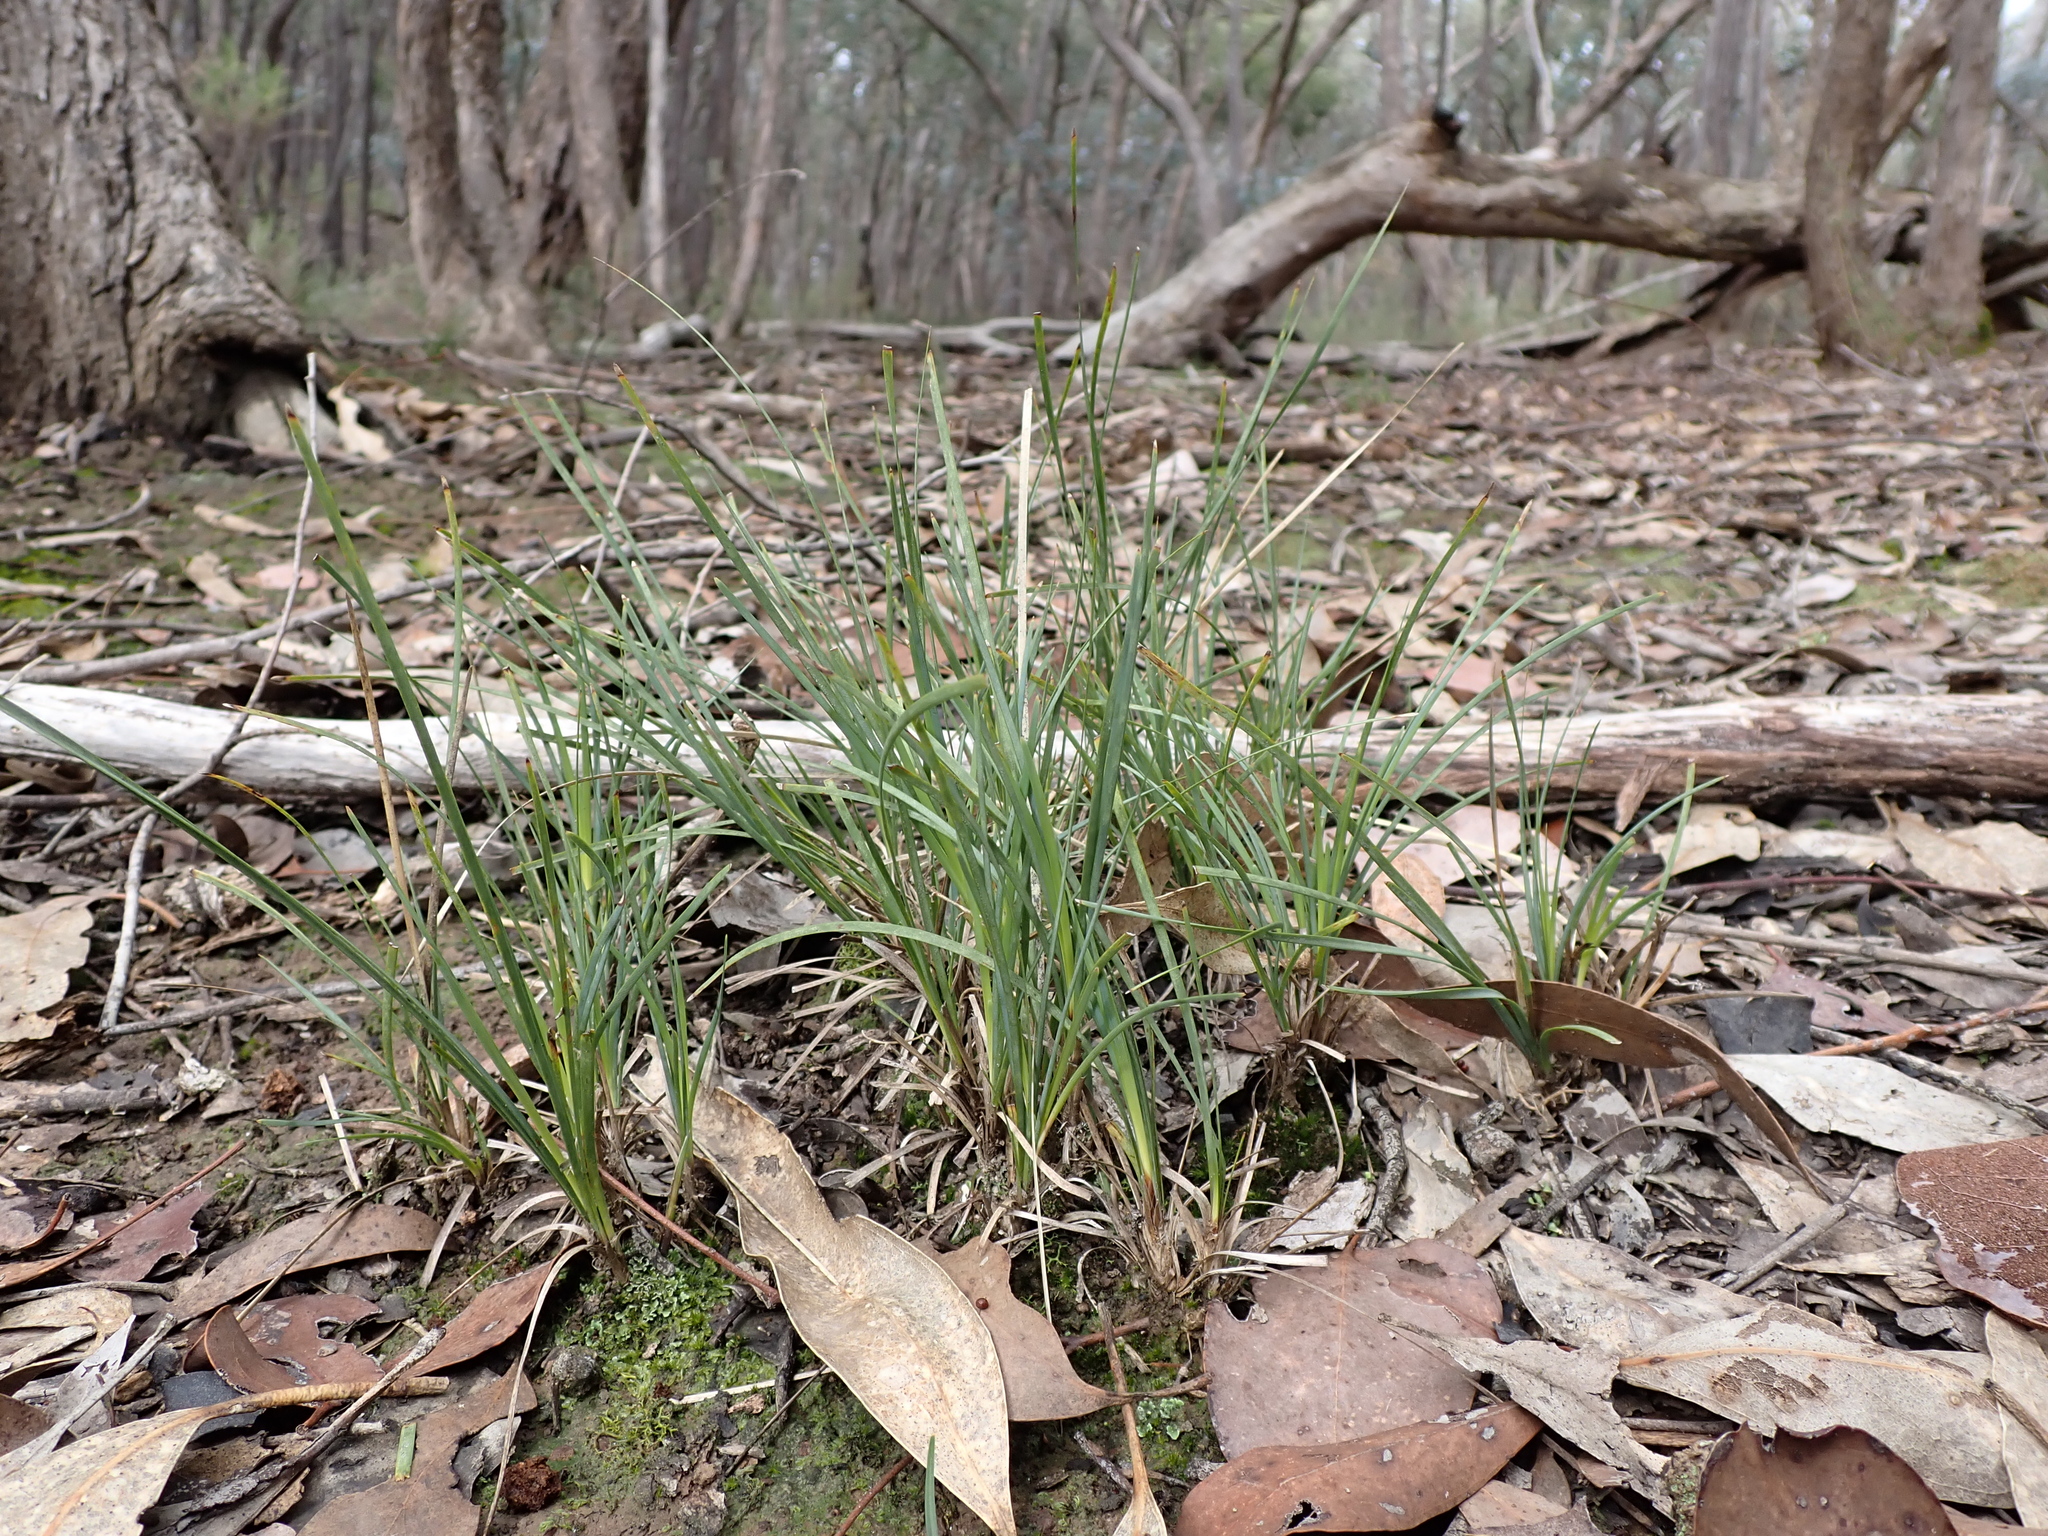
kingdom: Plantae
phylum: Tracheophyta
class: Liliopsida
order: Asparagales
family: Asparagaceae
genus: Lomandra
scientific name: Lomandra filiformis
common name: Wattle mat-rush
